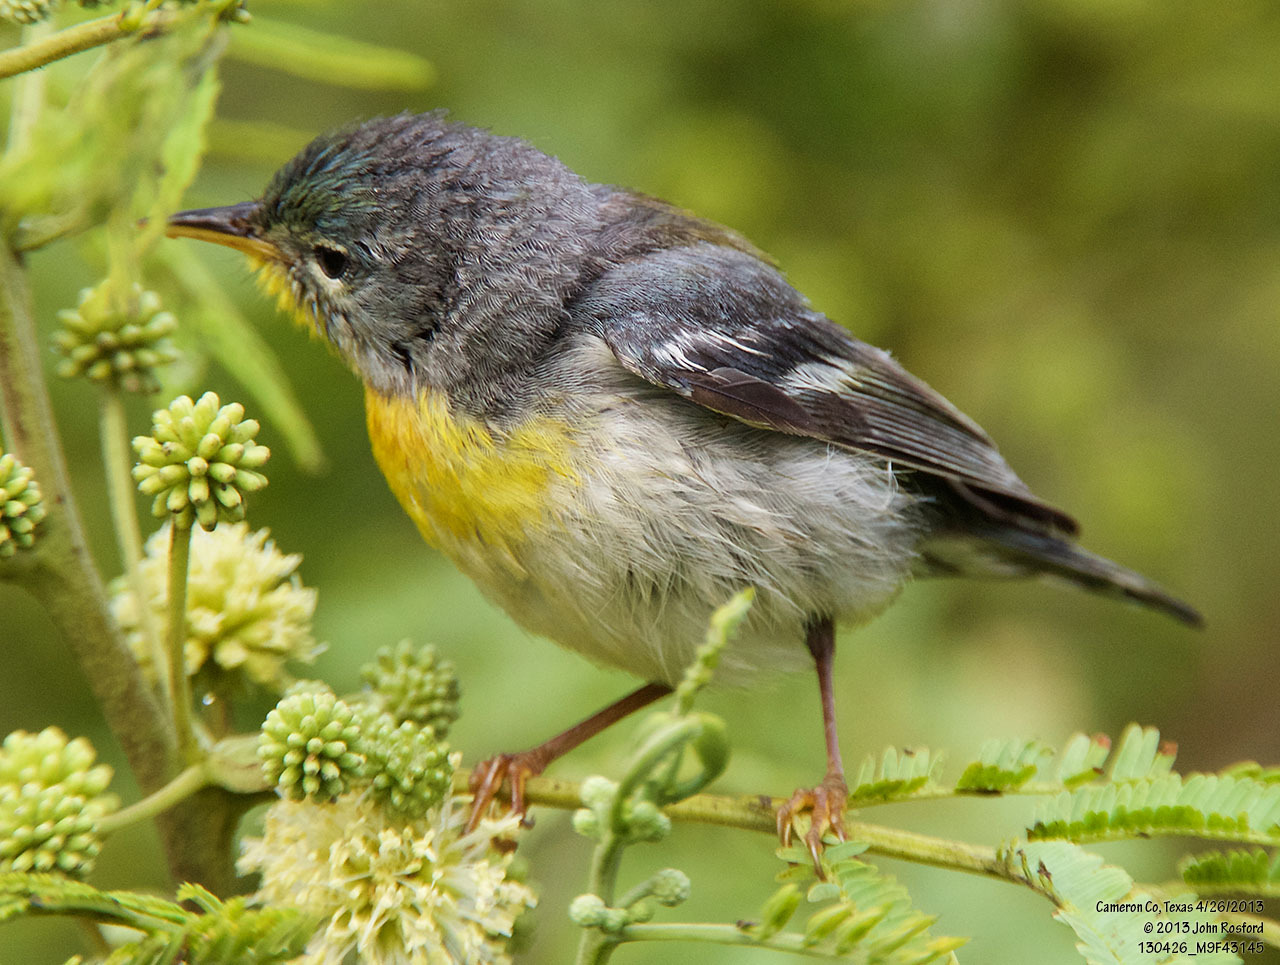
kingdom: Animalia
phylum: Chordata
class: Aves
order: Passeriformes
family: Parulidae
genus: Setophaga
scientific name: Setophaga americana
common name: Northern parula
